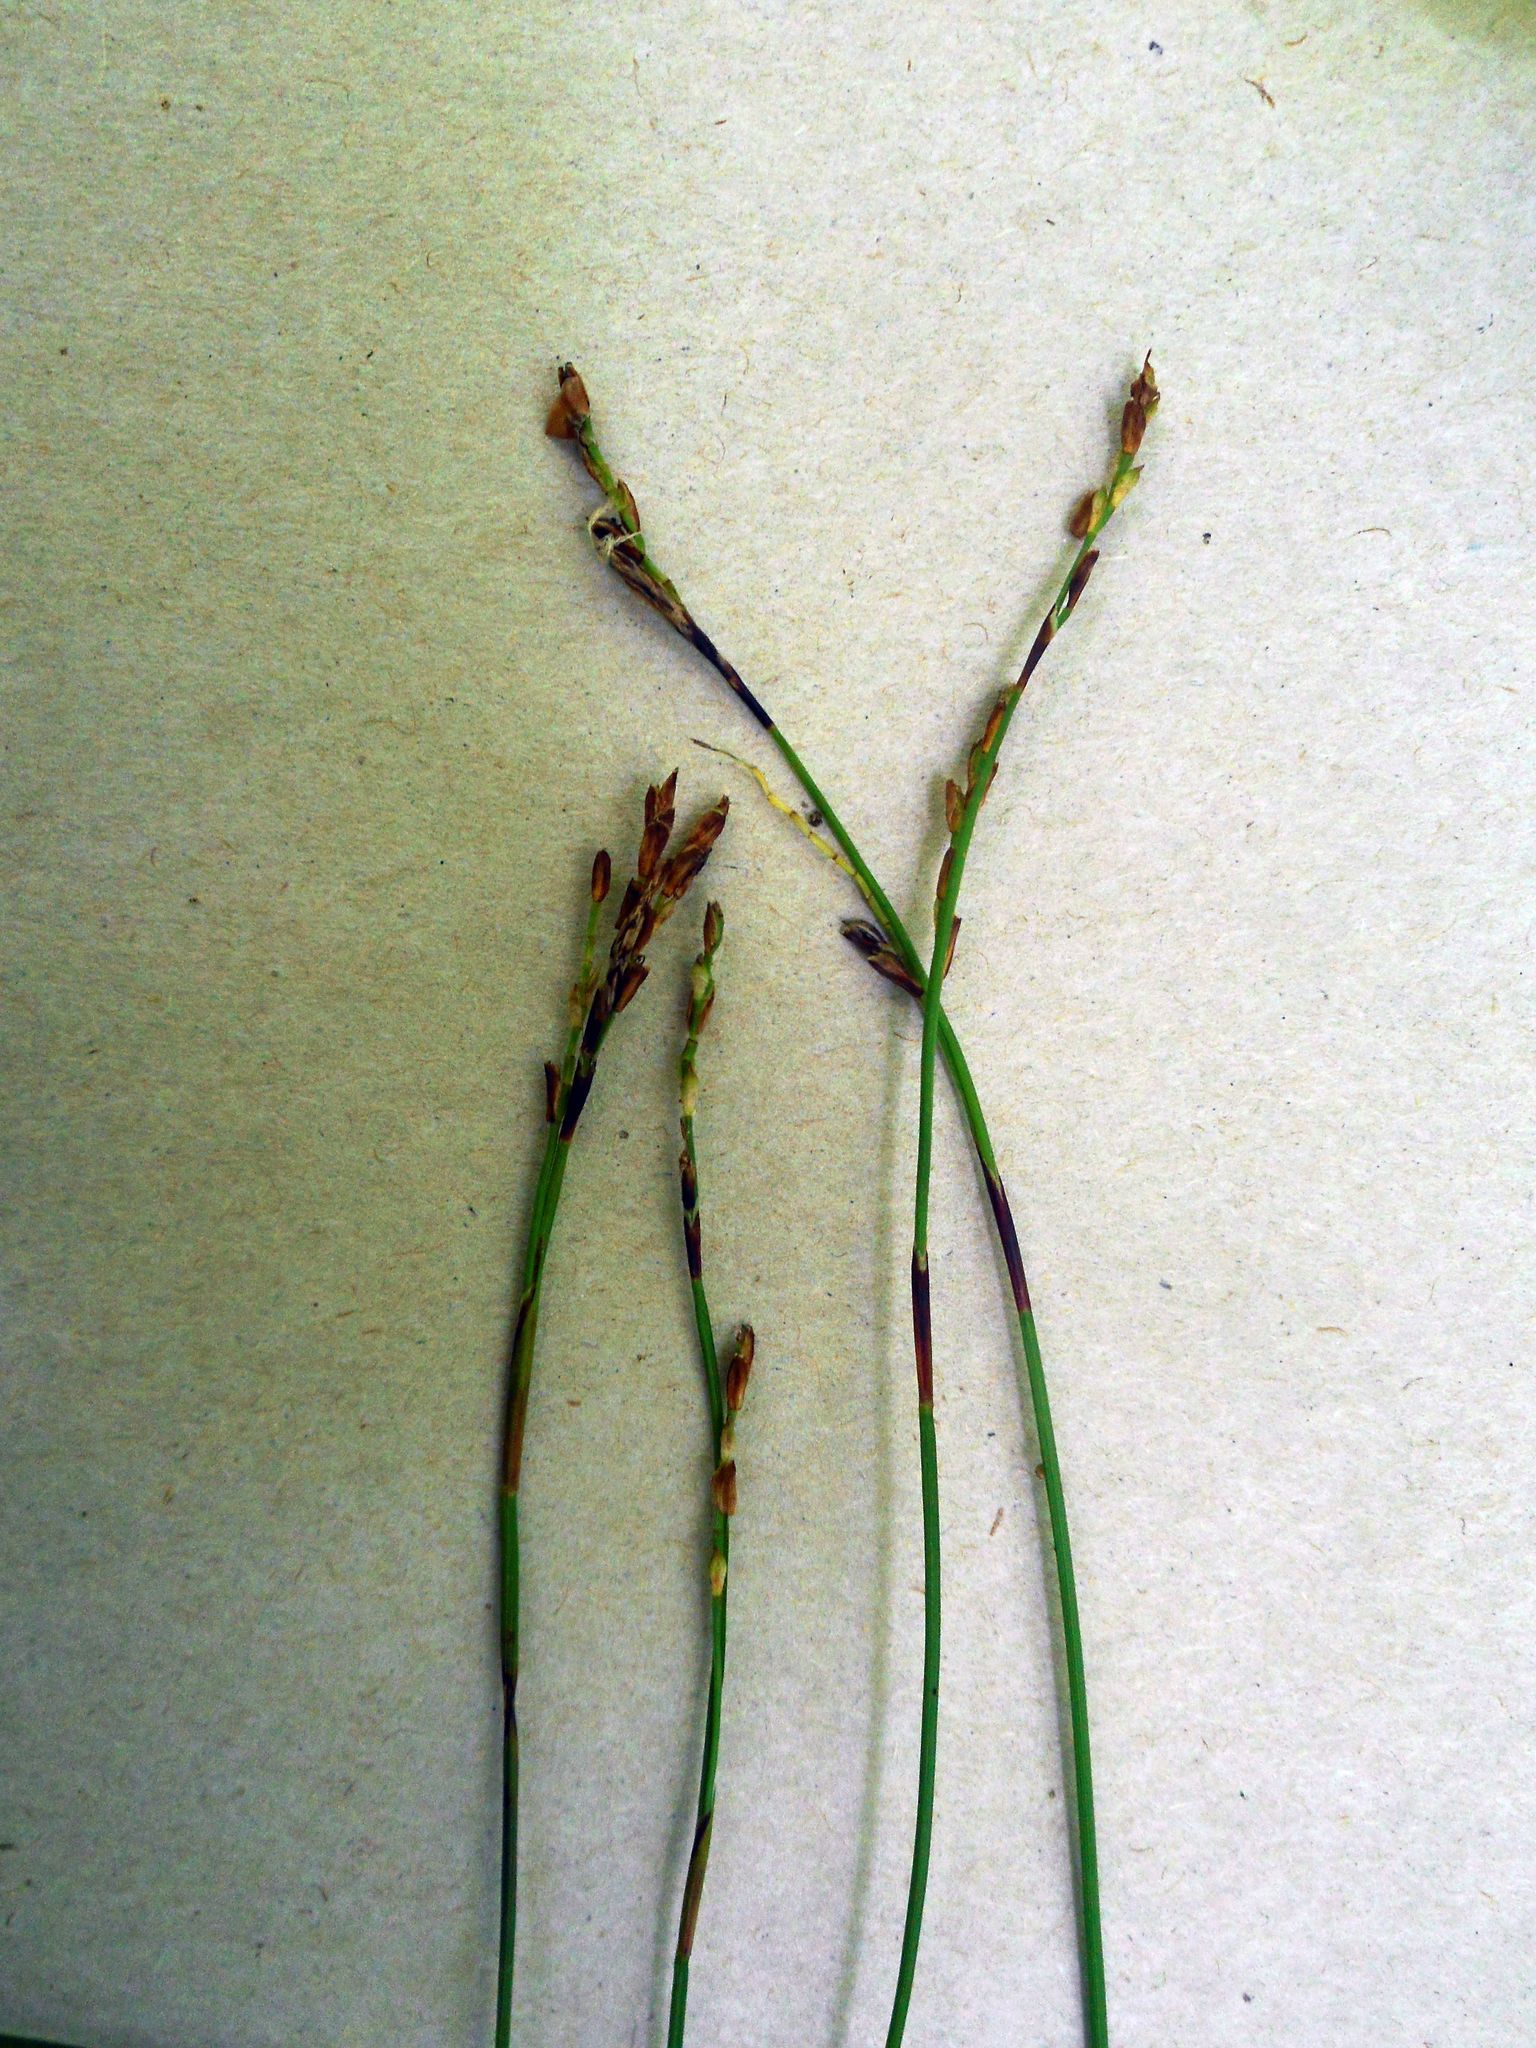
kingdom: Plantae
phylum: Tracheophyta
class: Liliopsida
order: Poales
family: Cyperaceae
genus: Carex
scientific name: Carex digitata
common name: Fingered sedge
